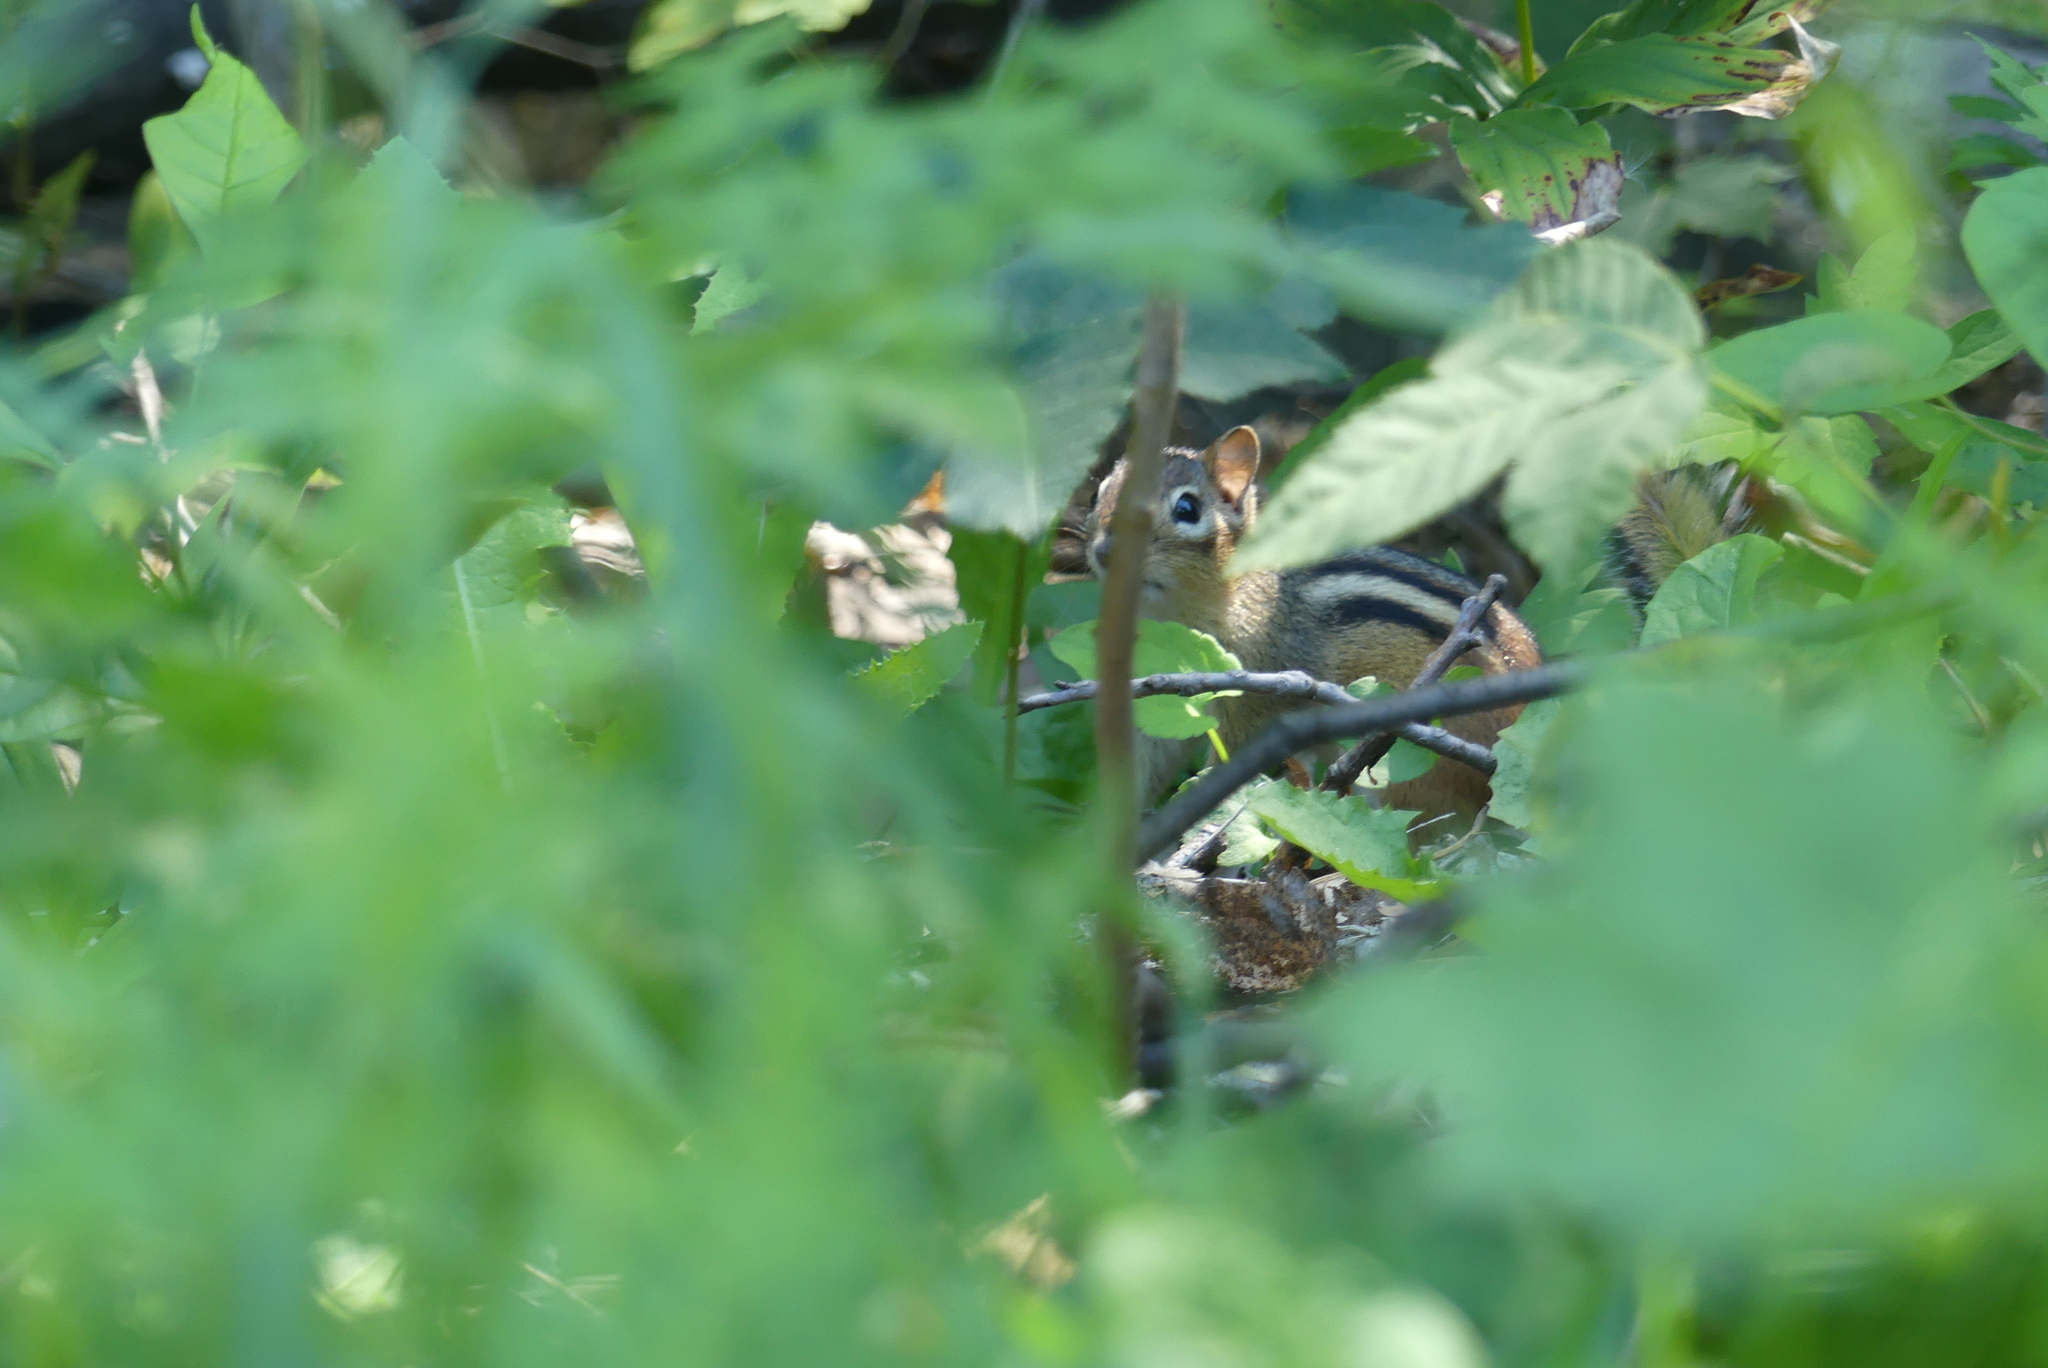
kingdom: Animalia
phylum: Chordata
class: Mammalia
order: Rodentia
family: Sciuridae
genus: Tamias
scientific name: Tamias striatus
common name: Eastern chipmunk
